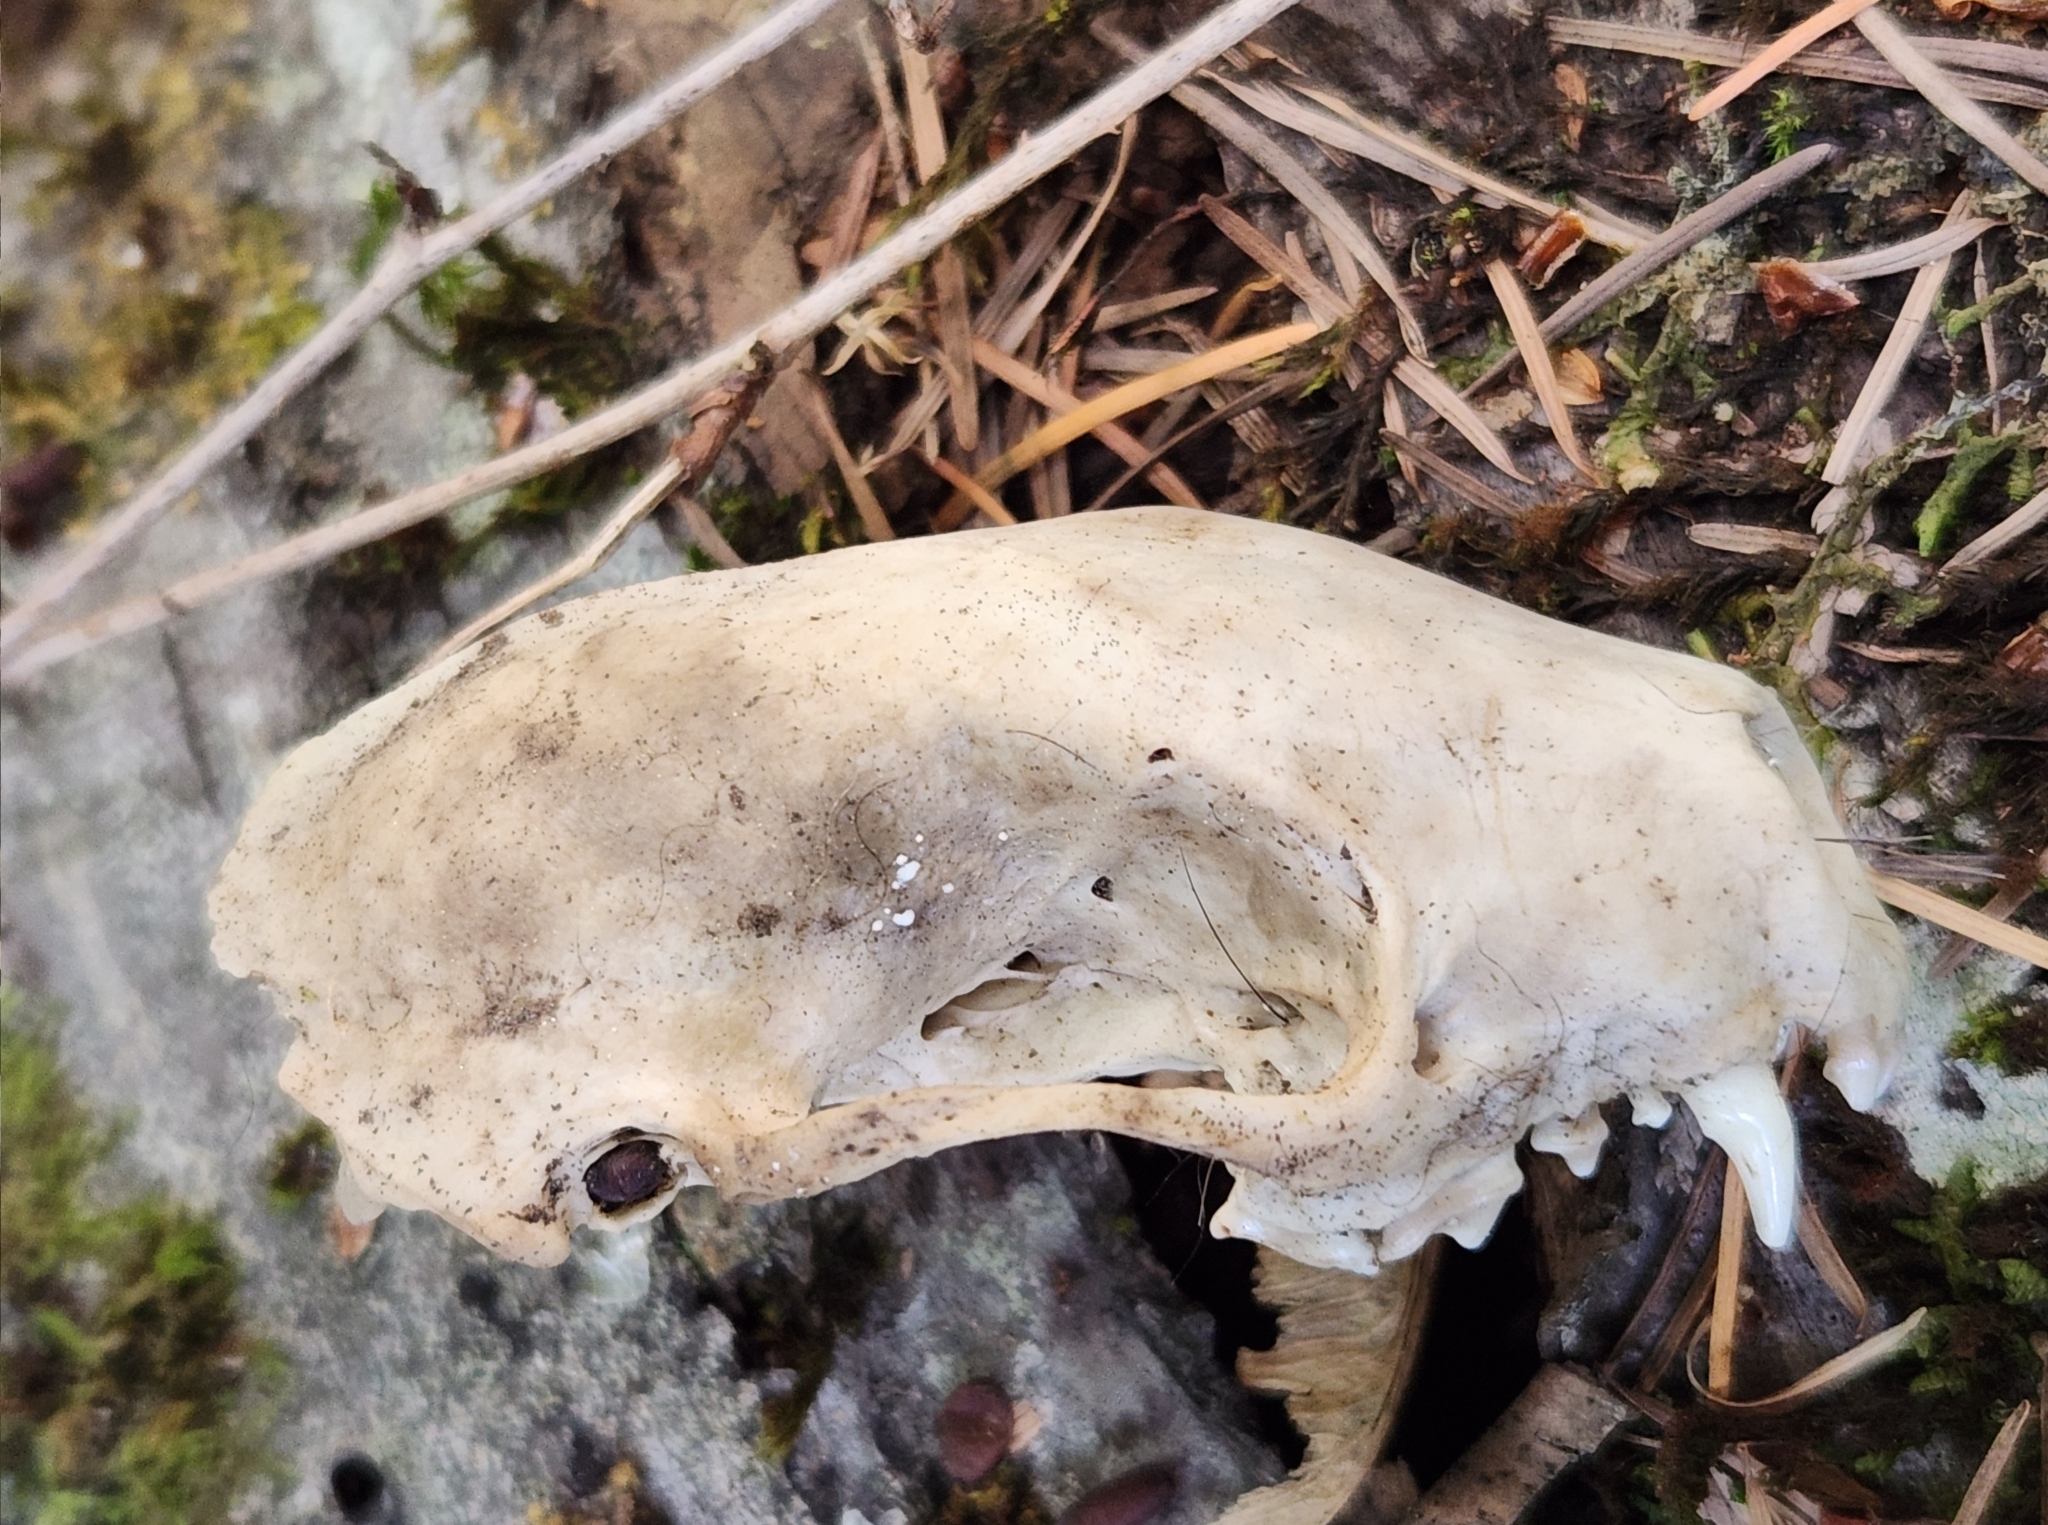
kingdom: Animalia
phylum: Chordata
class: Mammalia
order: Carnivora
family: Mephitidae
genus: Mephitis
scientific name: Mephitis mephitis
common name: Striped skunk
